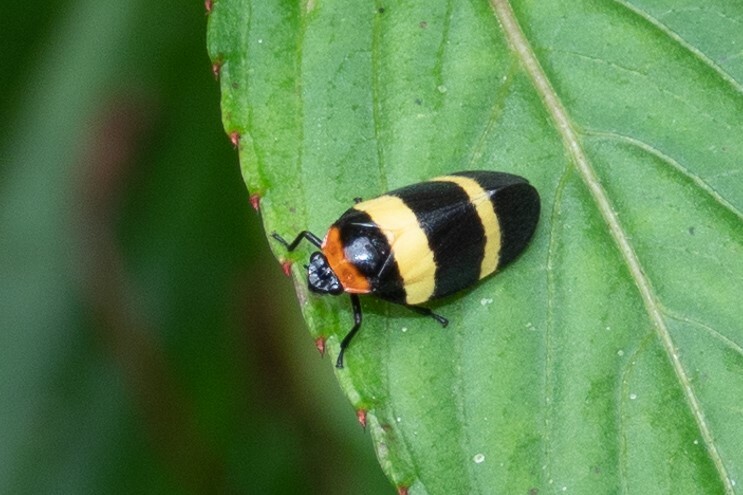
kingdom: Animalia
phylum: Arthropoda
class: Insecta
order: Hemiptera
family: Cercopidae
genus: Sphenorhina
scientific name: Sphenorhina nigricephala
